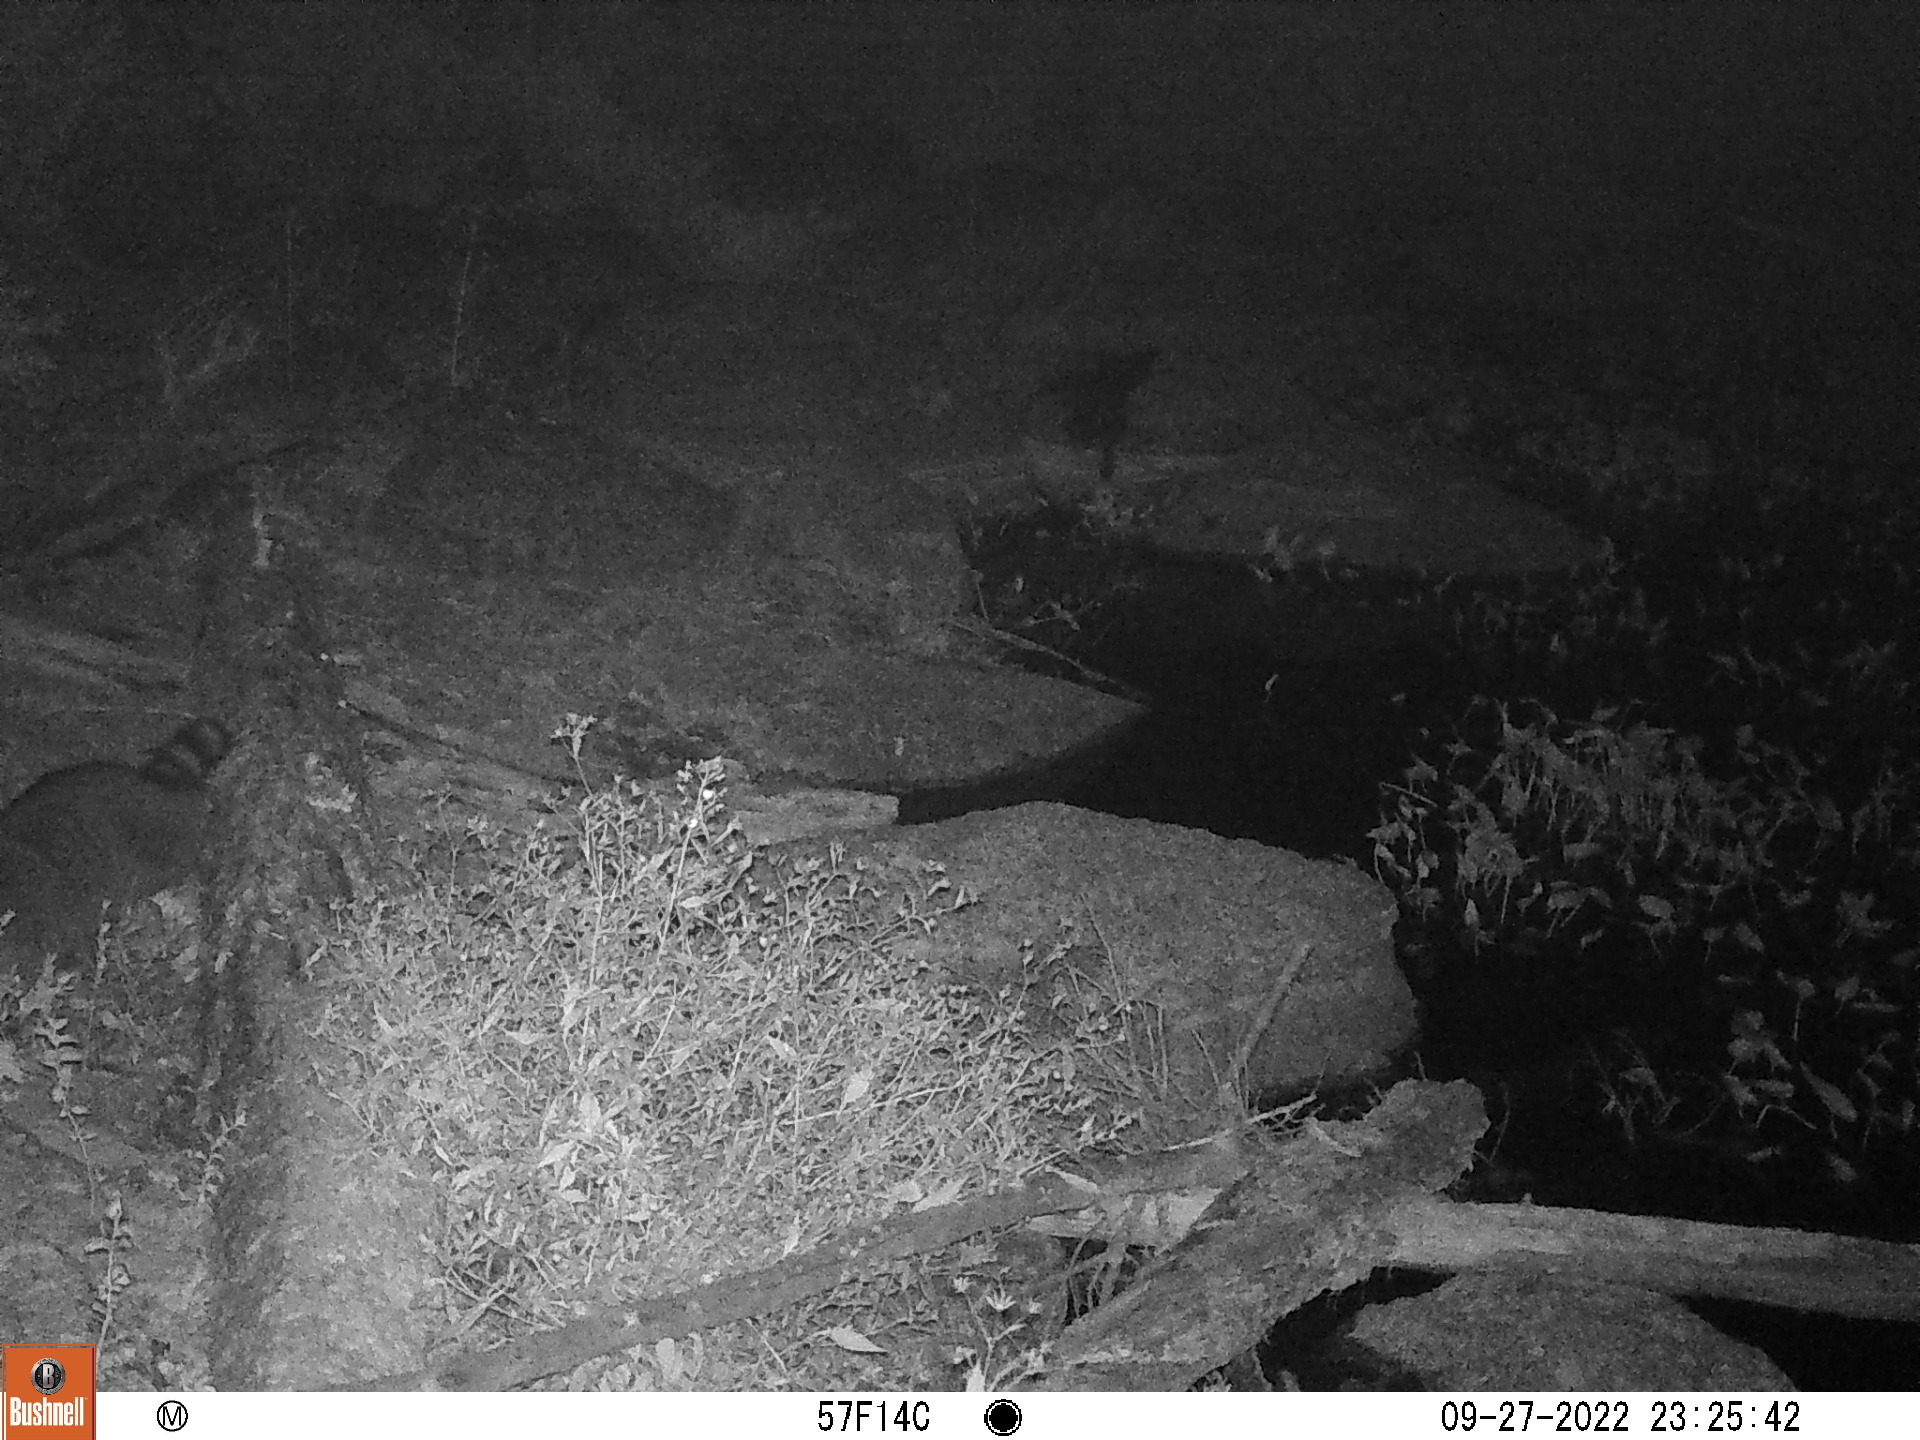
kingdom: Animalia
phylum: Chordata
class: Mammalia
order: Carnivora
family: Procyonidae
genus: Procyon
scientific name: Procyon lotor
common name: Raccoon
